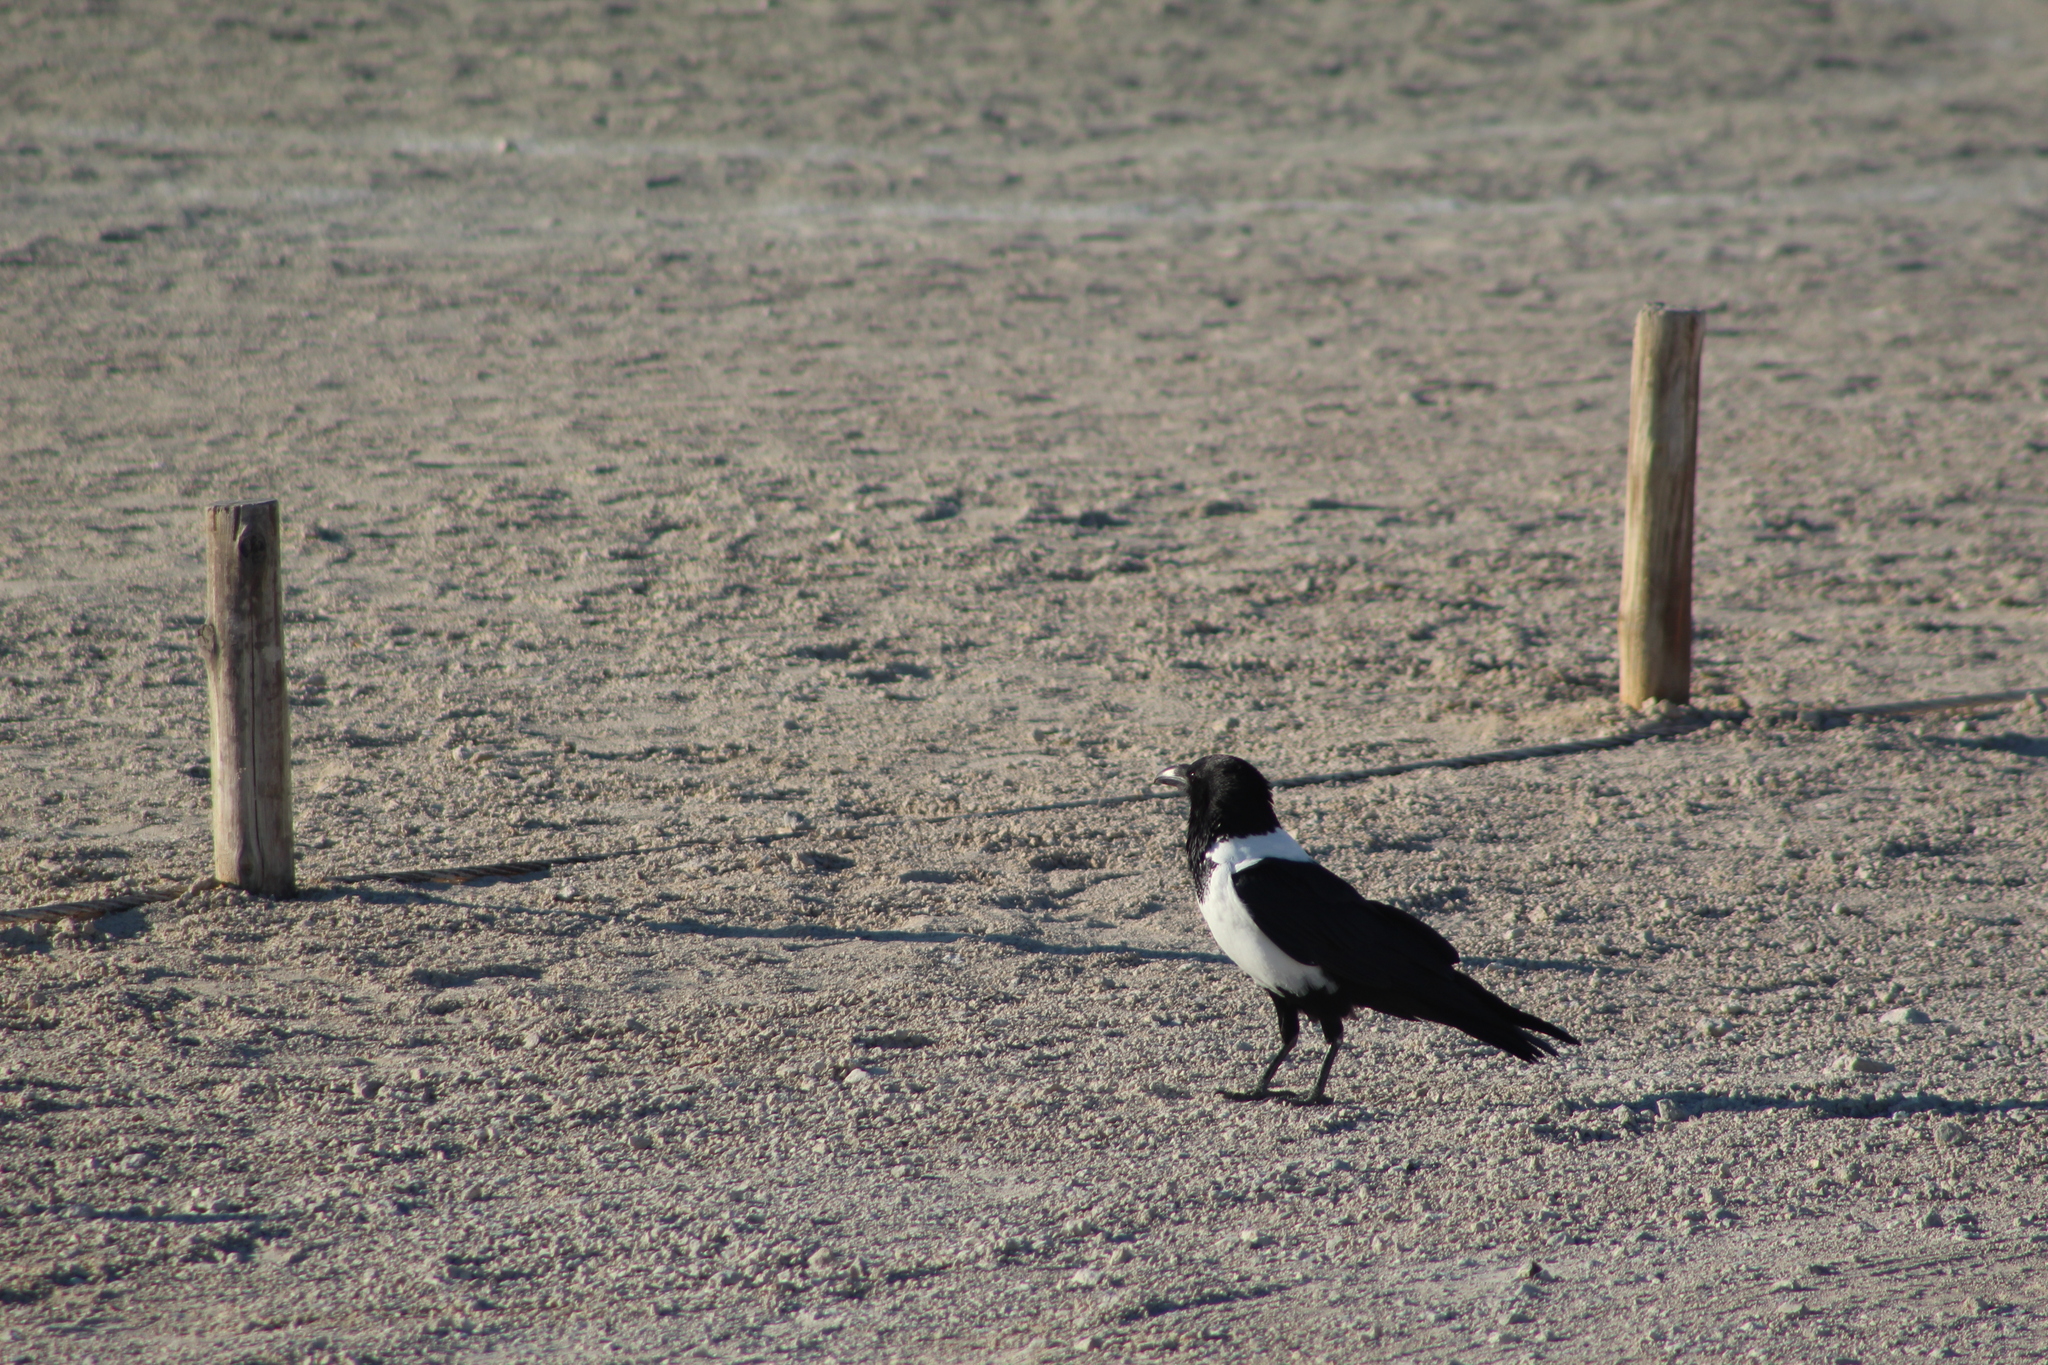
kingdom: Animalia
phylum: Chordata
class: Aves
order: Passeriformes
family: Corvidae
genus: Corvus
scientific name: Corvus albus
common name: Pied crow
